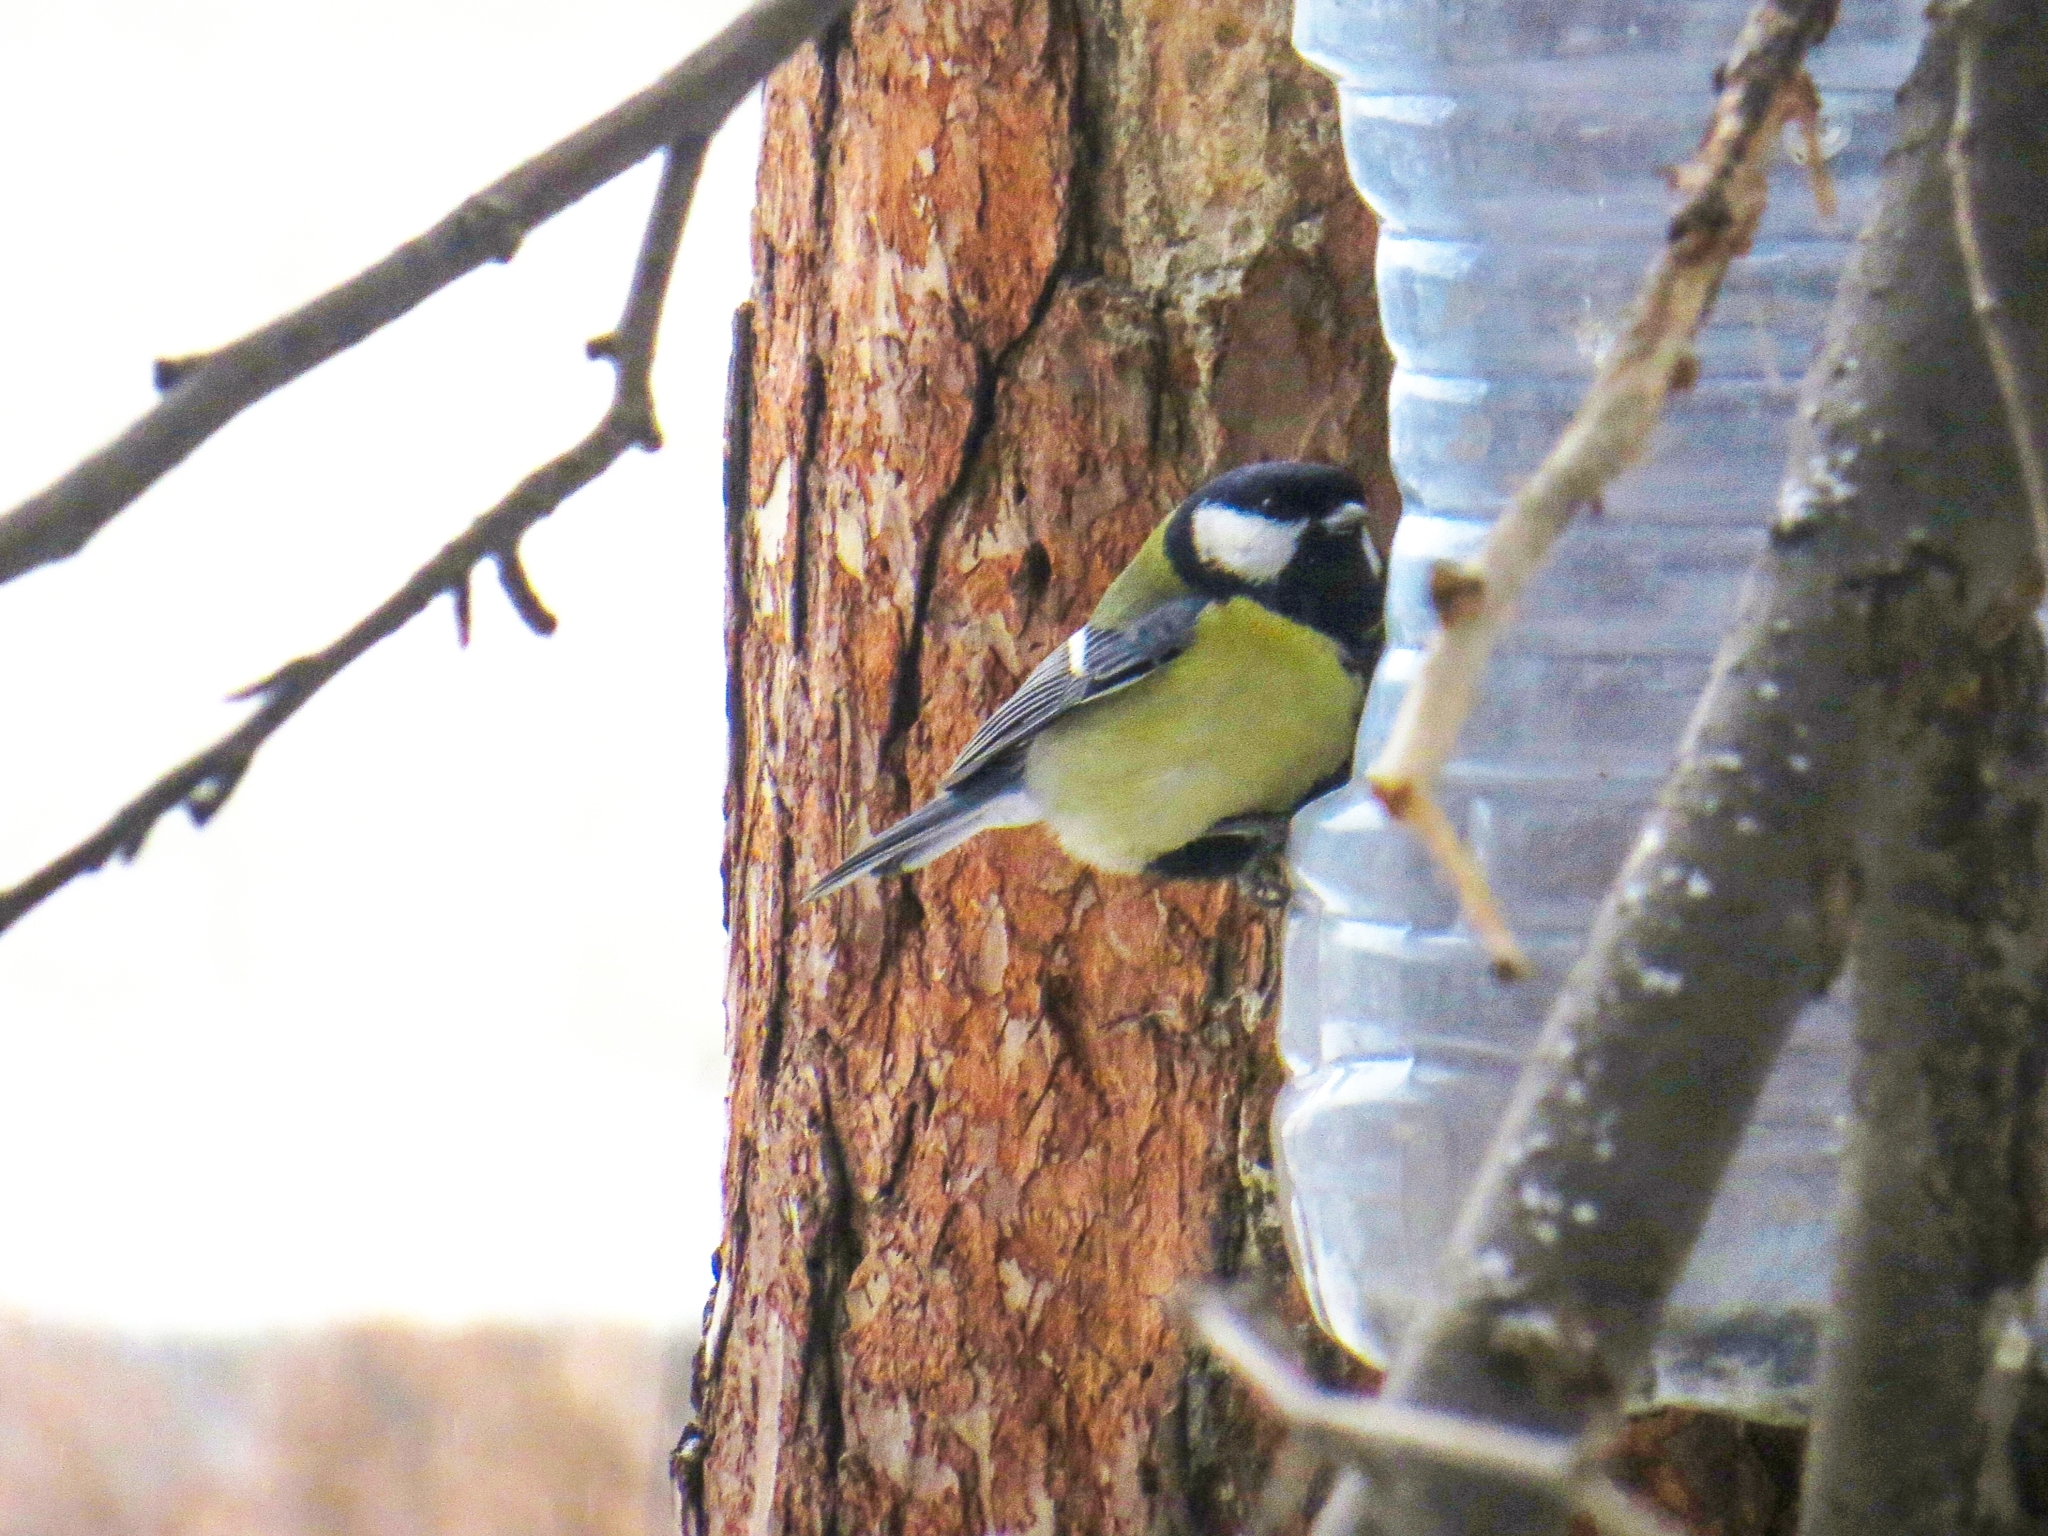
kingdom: Animalia
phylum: Chordata
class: Aves
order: Passeriformes
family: Paridae
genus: Parus
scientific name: Parus major
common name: Great tit
